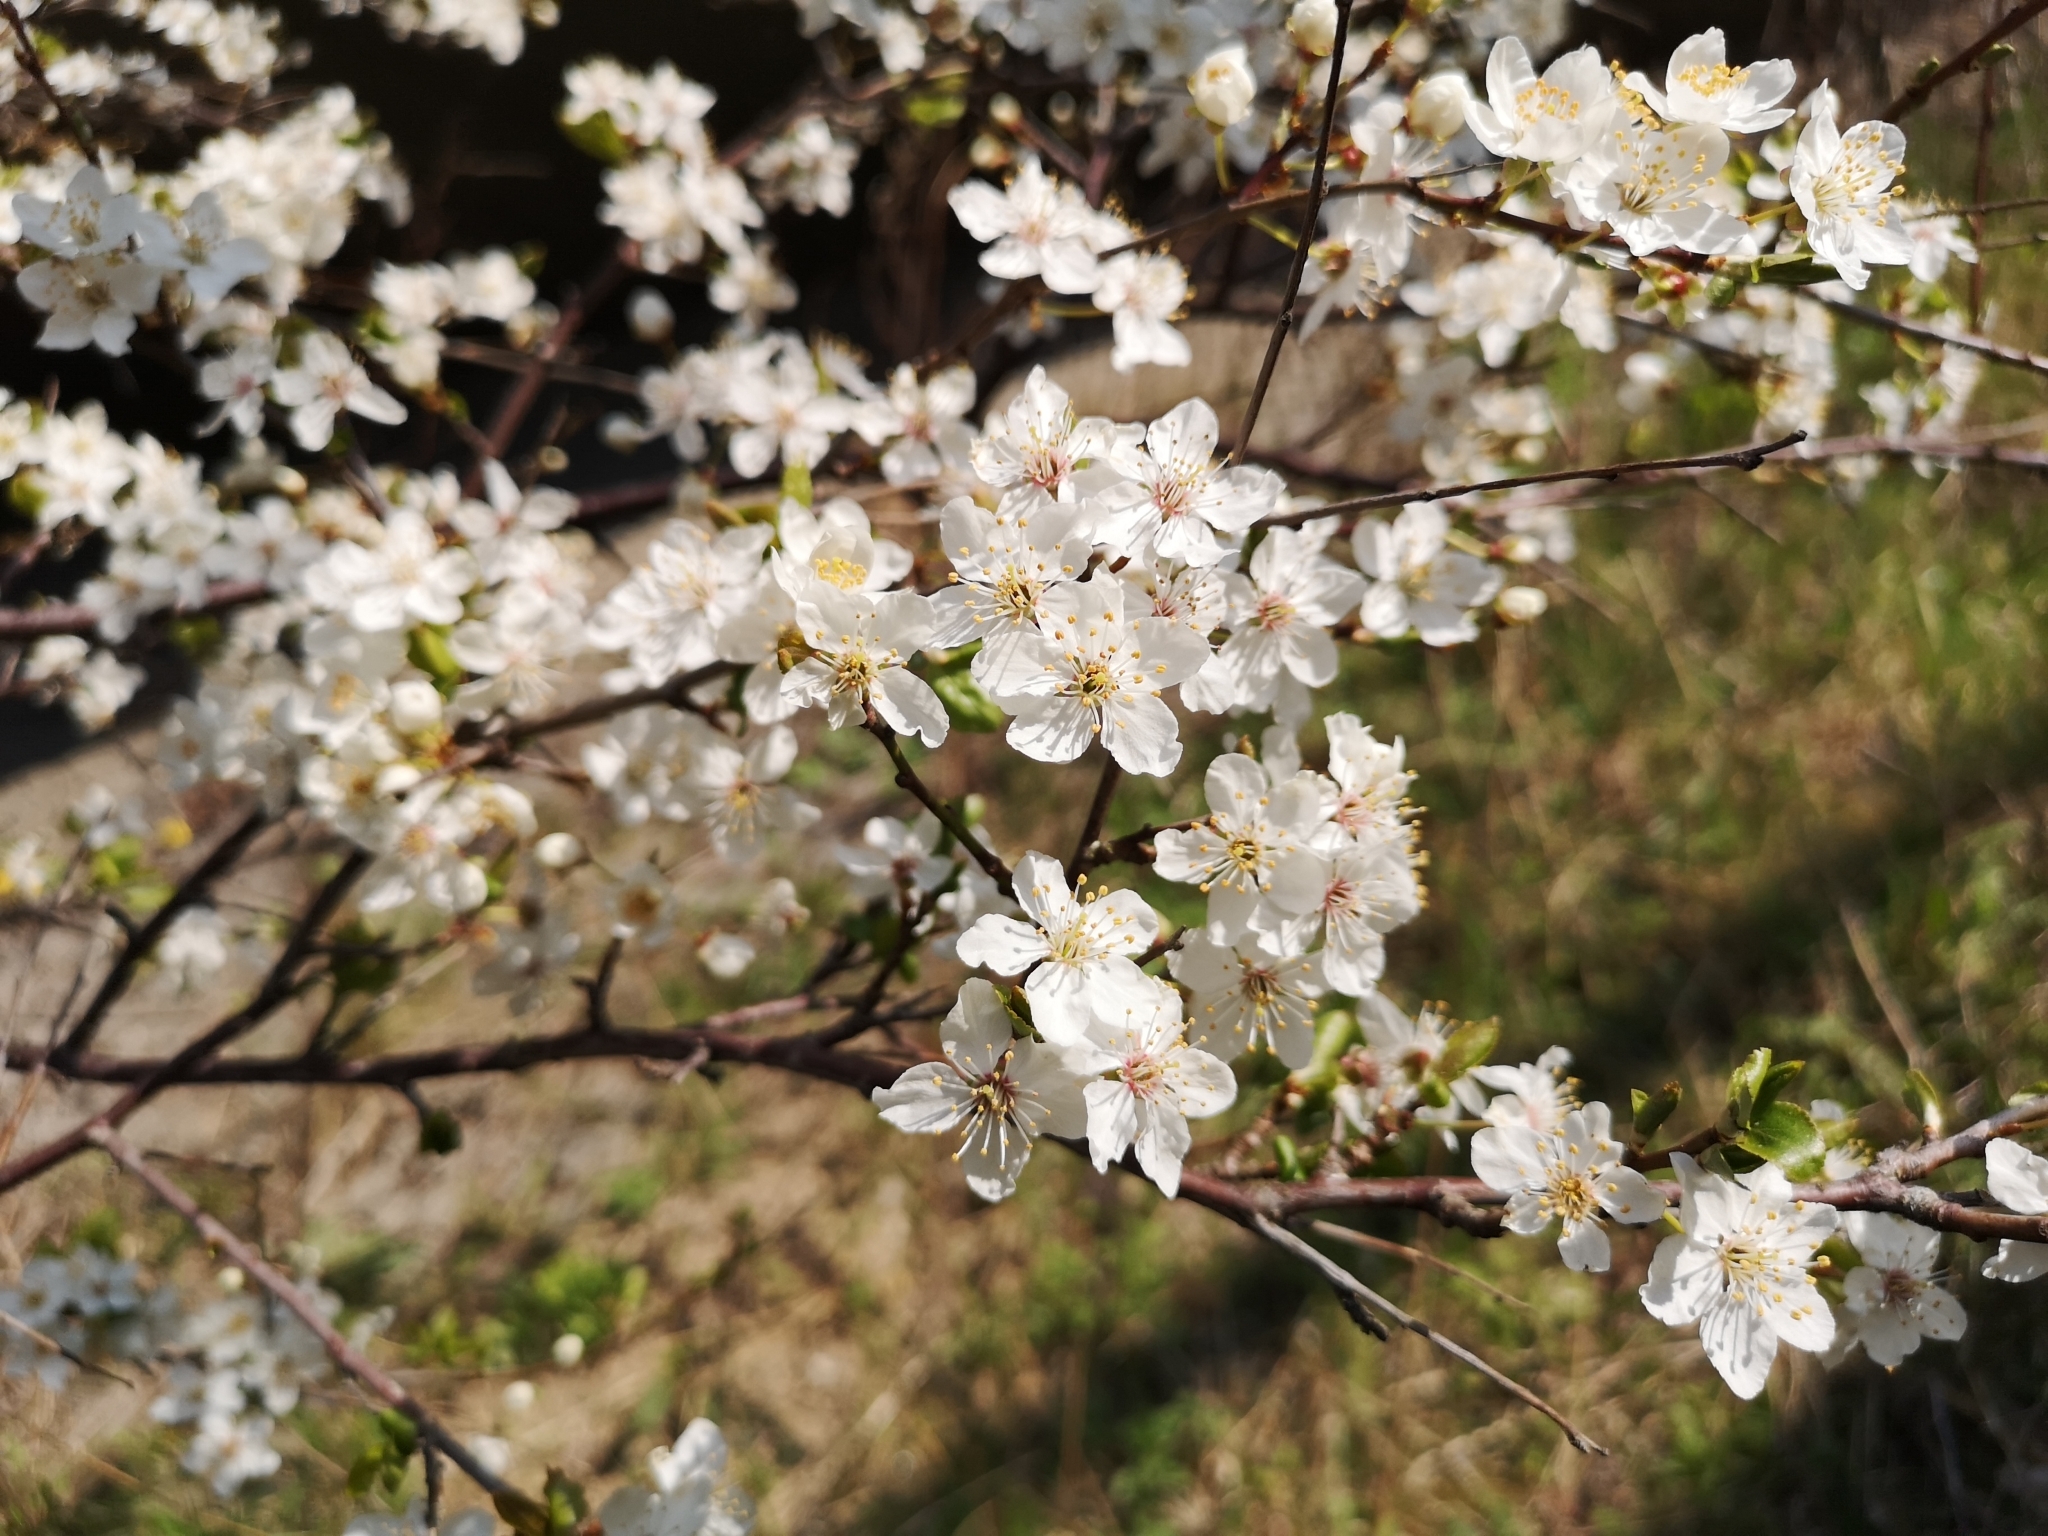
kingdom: Plantae
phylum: Tracheophyta
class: Magnoliopsida
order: Rosales
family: Rosaceae
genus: Prunus
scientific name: Prunus cerasifera
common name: Cherry plum
